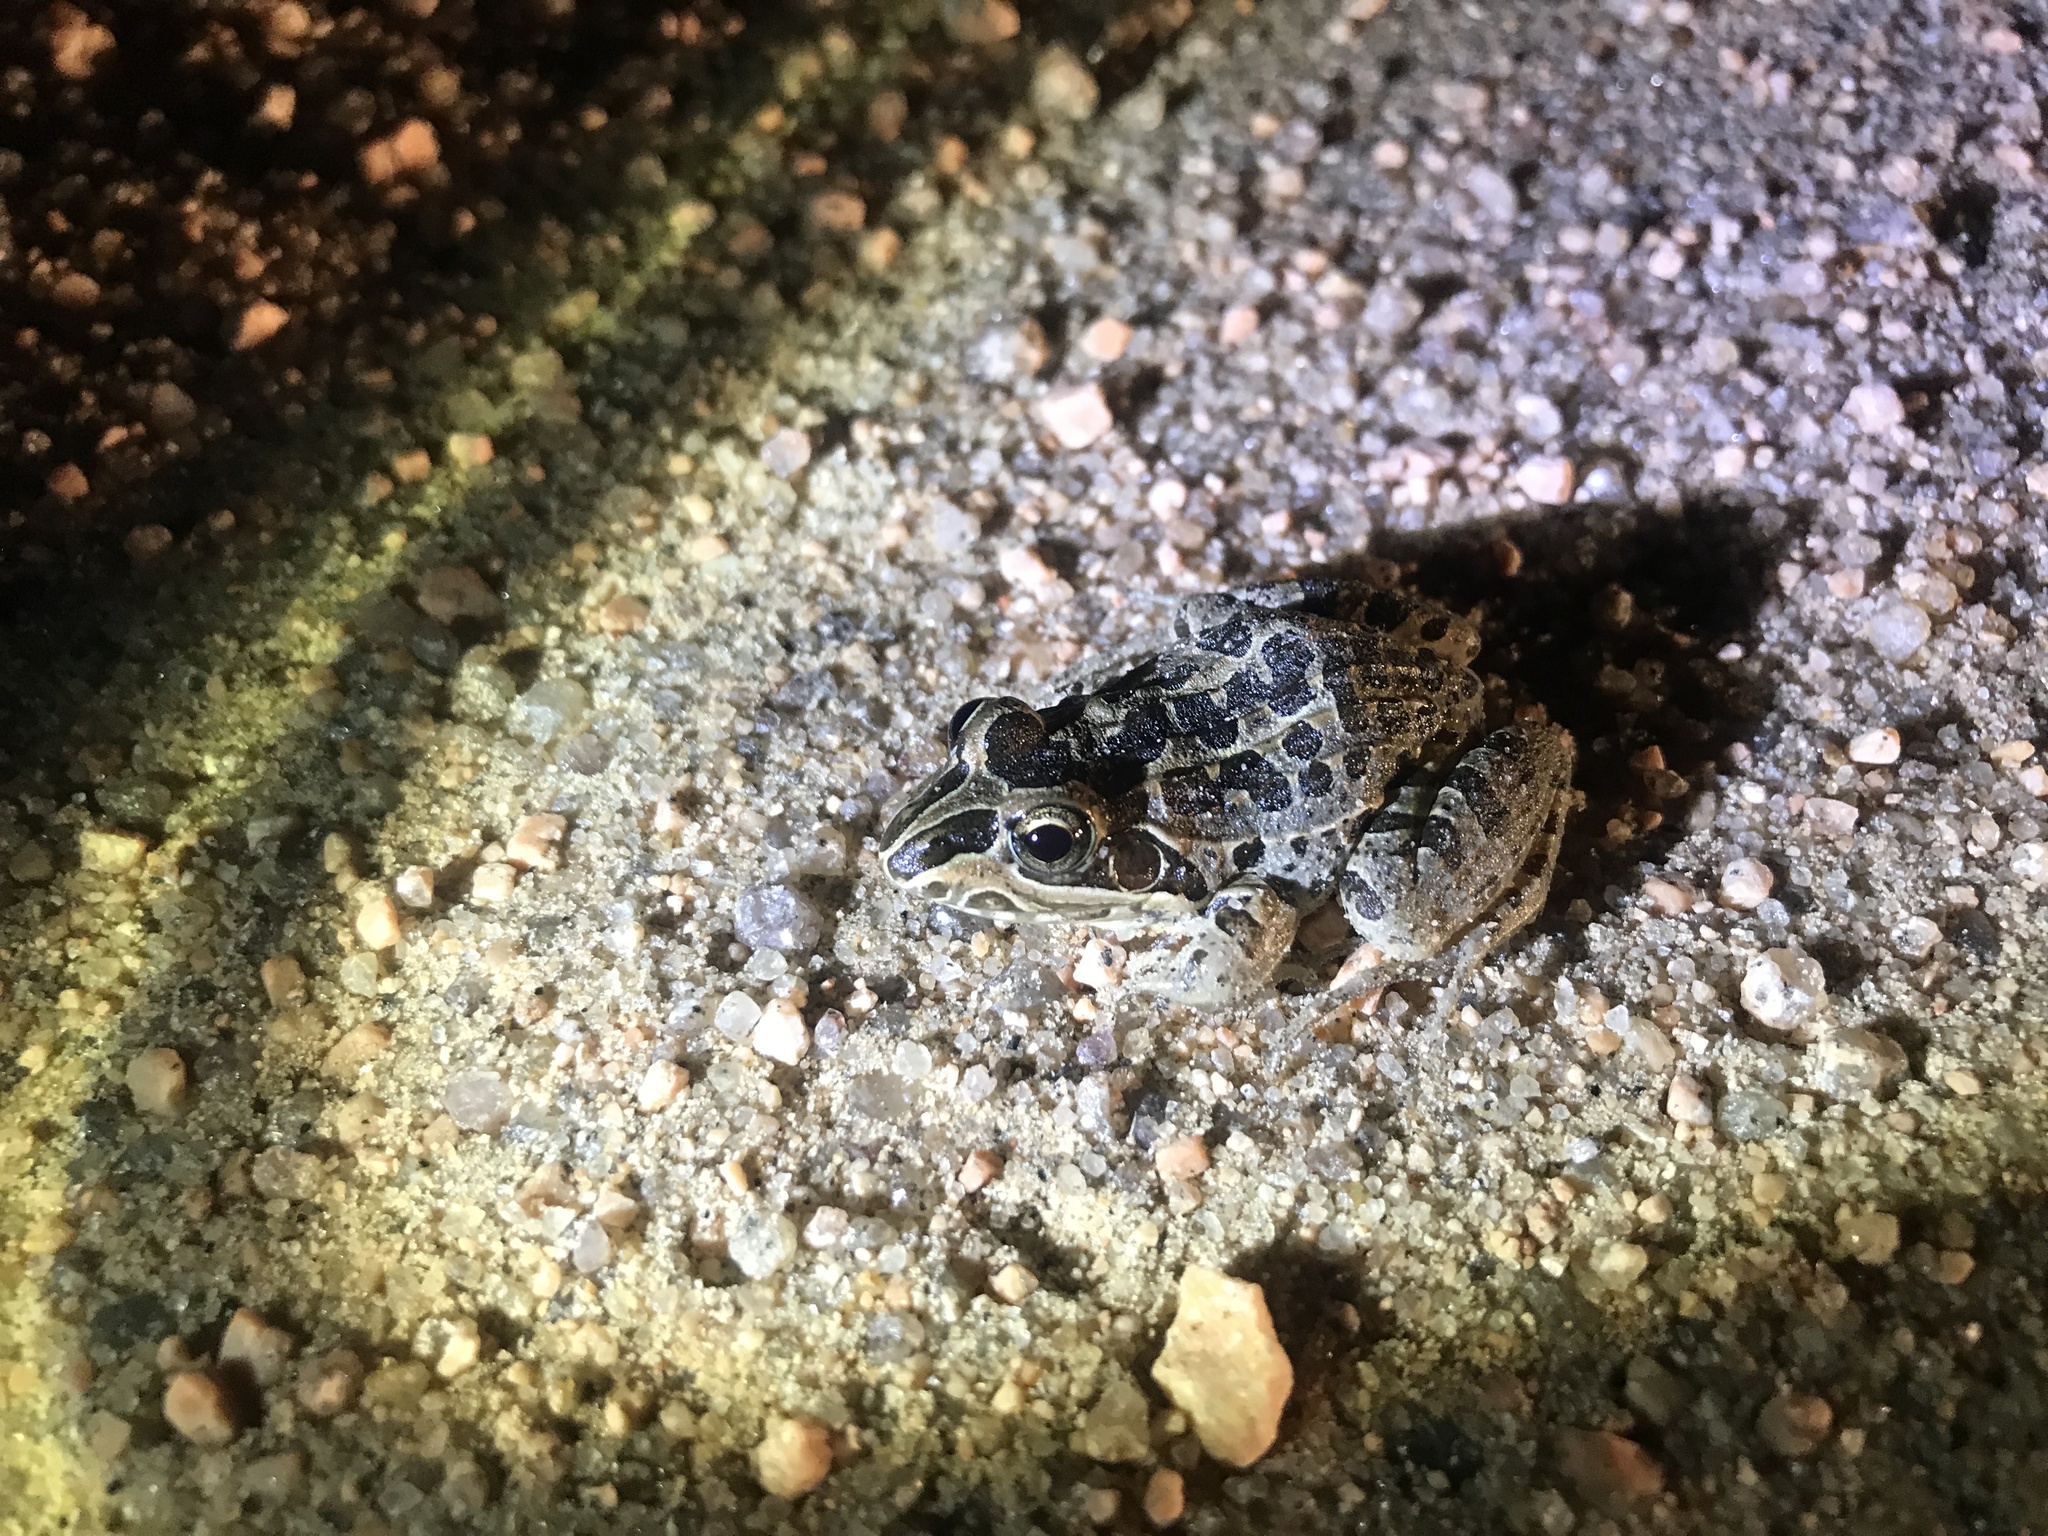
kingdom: Animalia
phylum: Chordata
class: Amphibia
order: Anura
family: Leptodactylidae
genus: Leptodactylus
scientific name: Leptodactylus luctator
